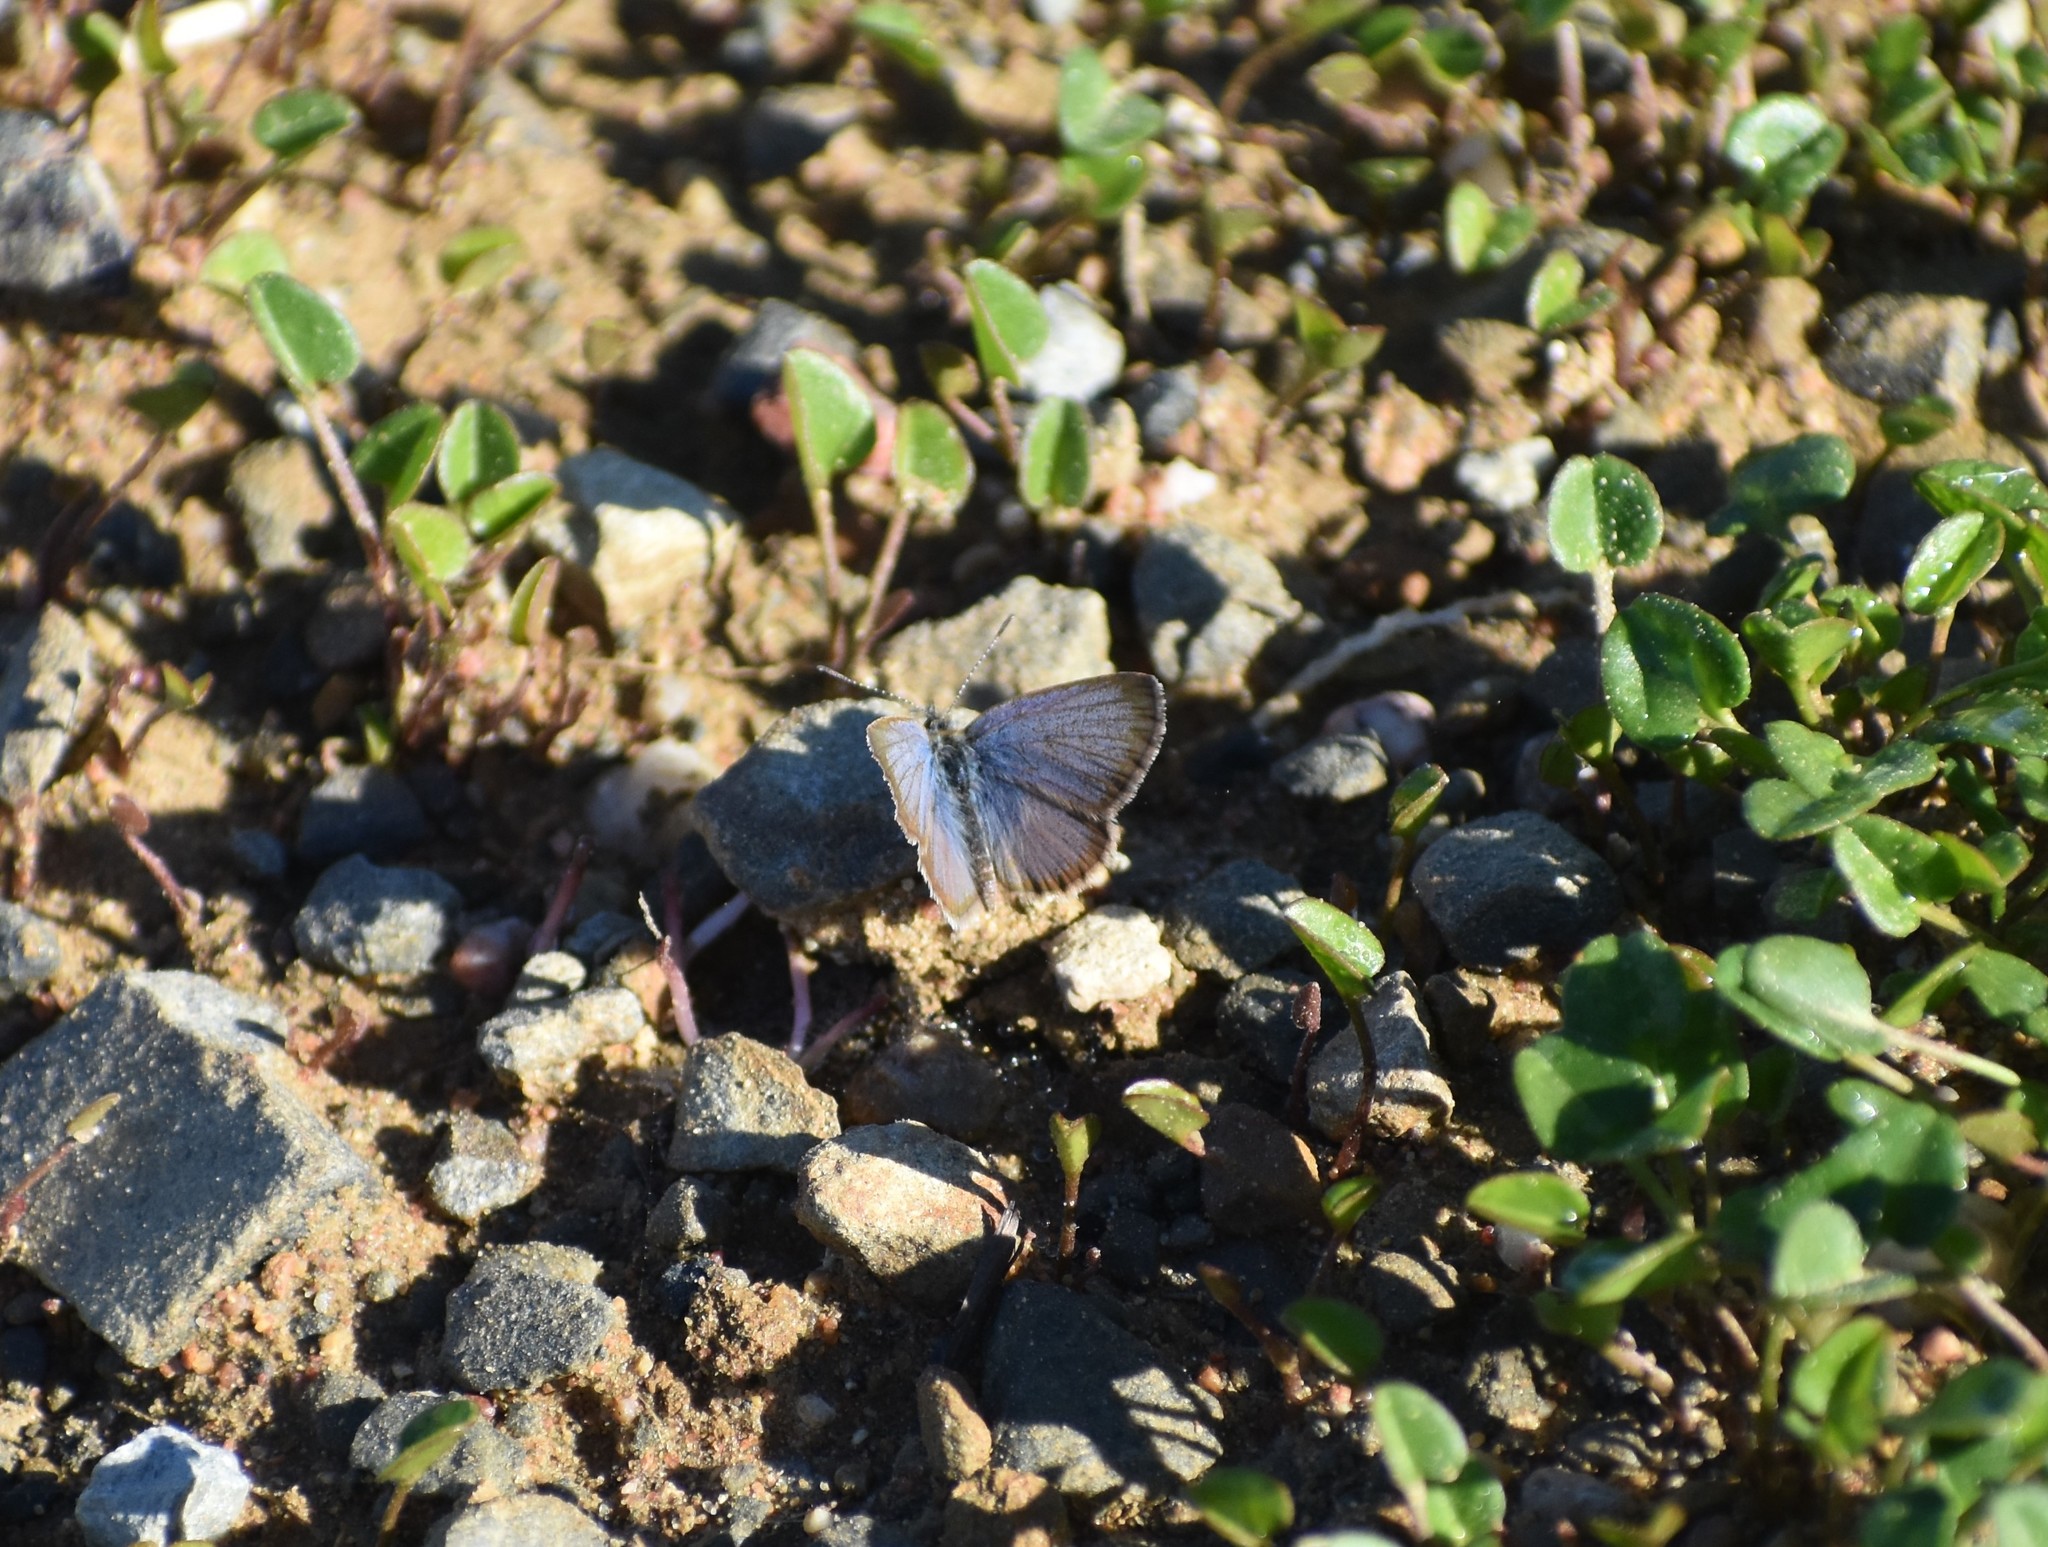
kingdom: Animalia
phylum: Arthropoda
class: Insecta
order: Lepidoptera
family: Lycaenidae
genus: Zizeeria
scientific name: Zizeeria knysna
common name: African grass blue
